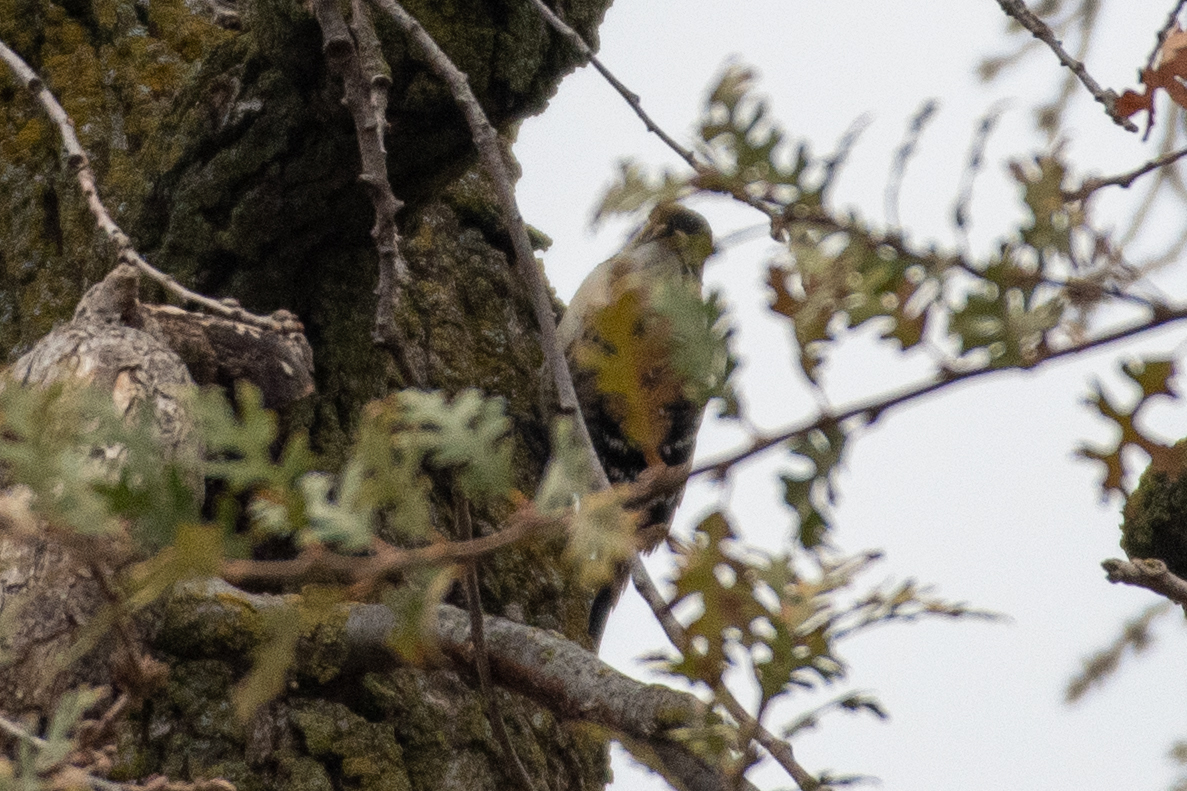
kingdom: Animalia
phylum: Chordata
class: Aves
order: Piciformes
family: Picidae
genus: Dryobates
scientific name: Dryobates nuttallii
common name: Nuttall's woodpecker
